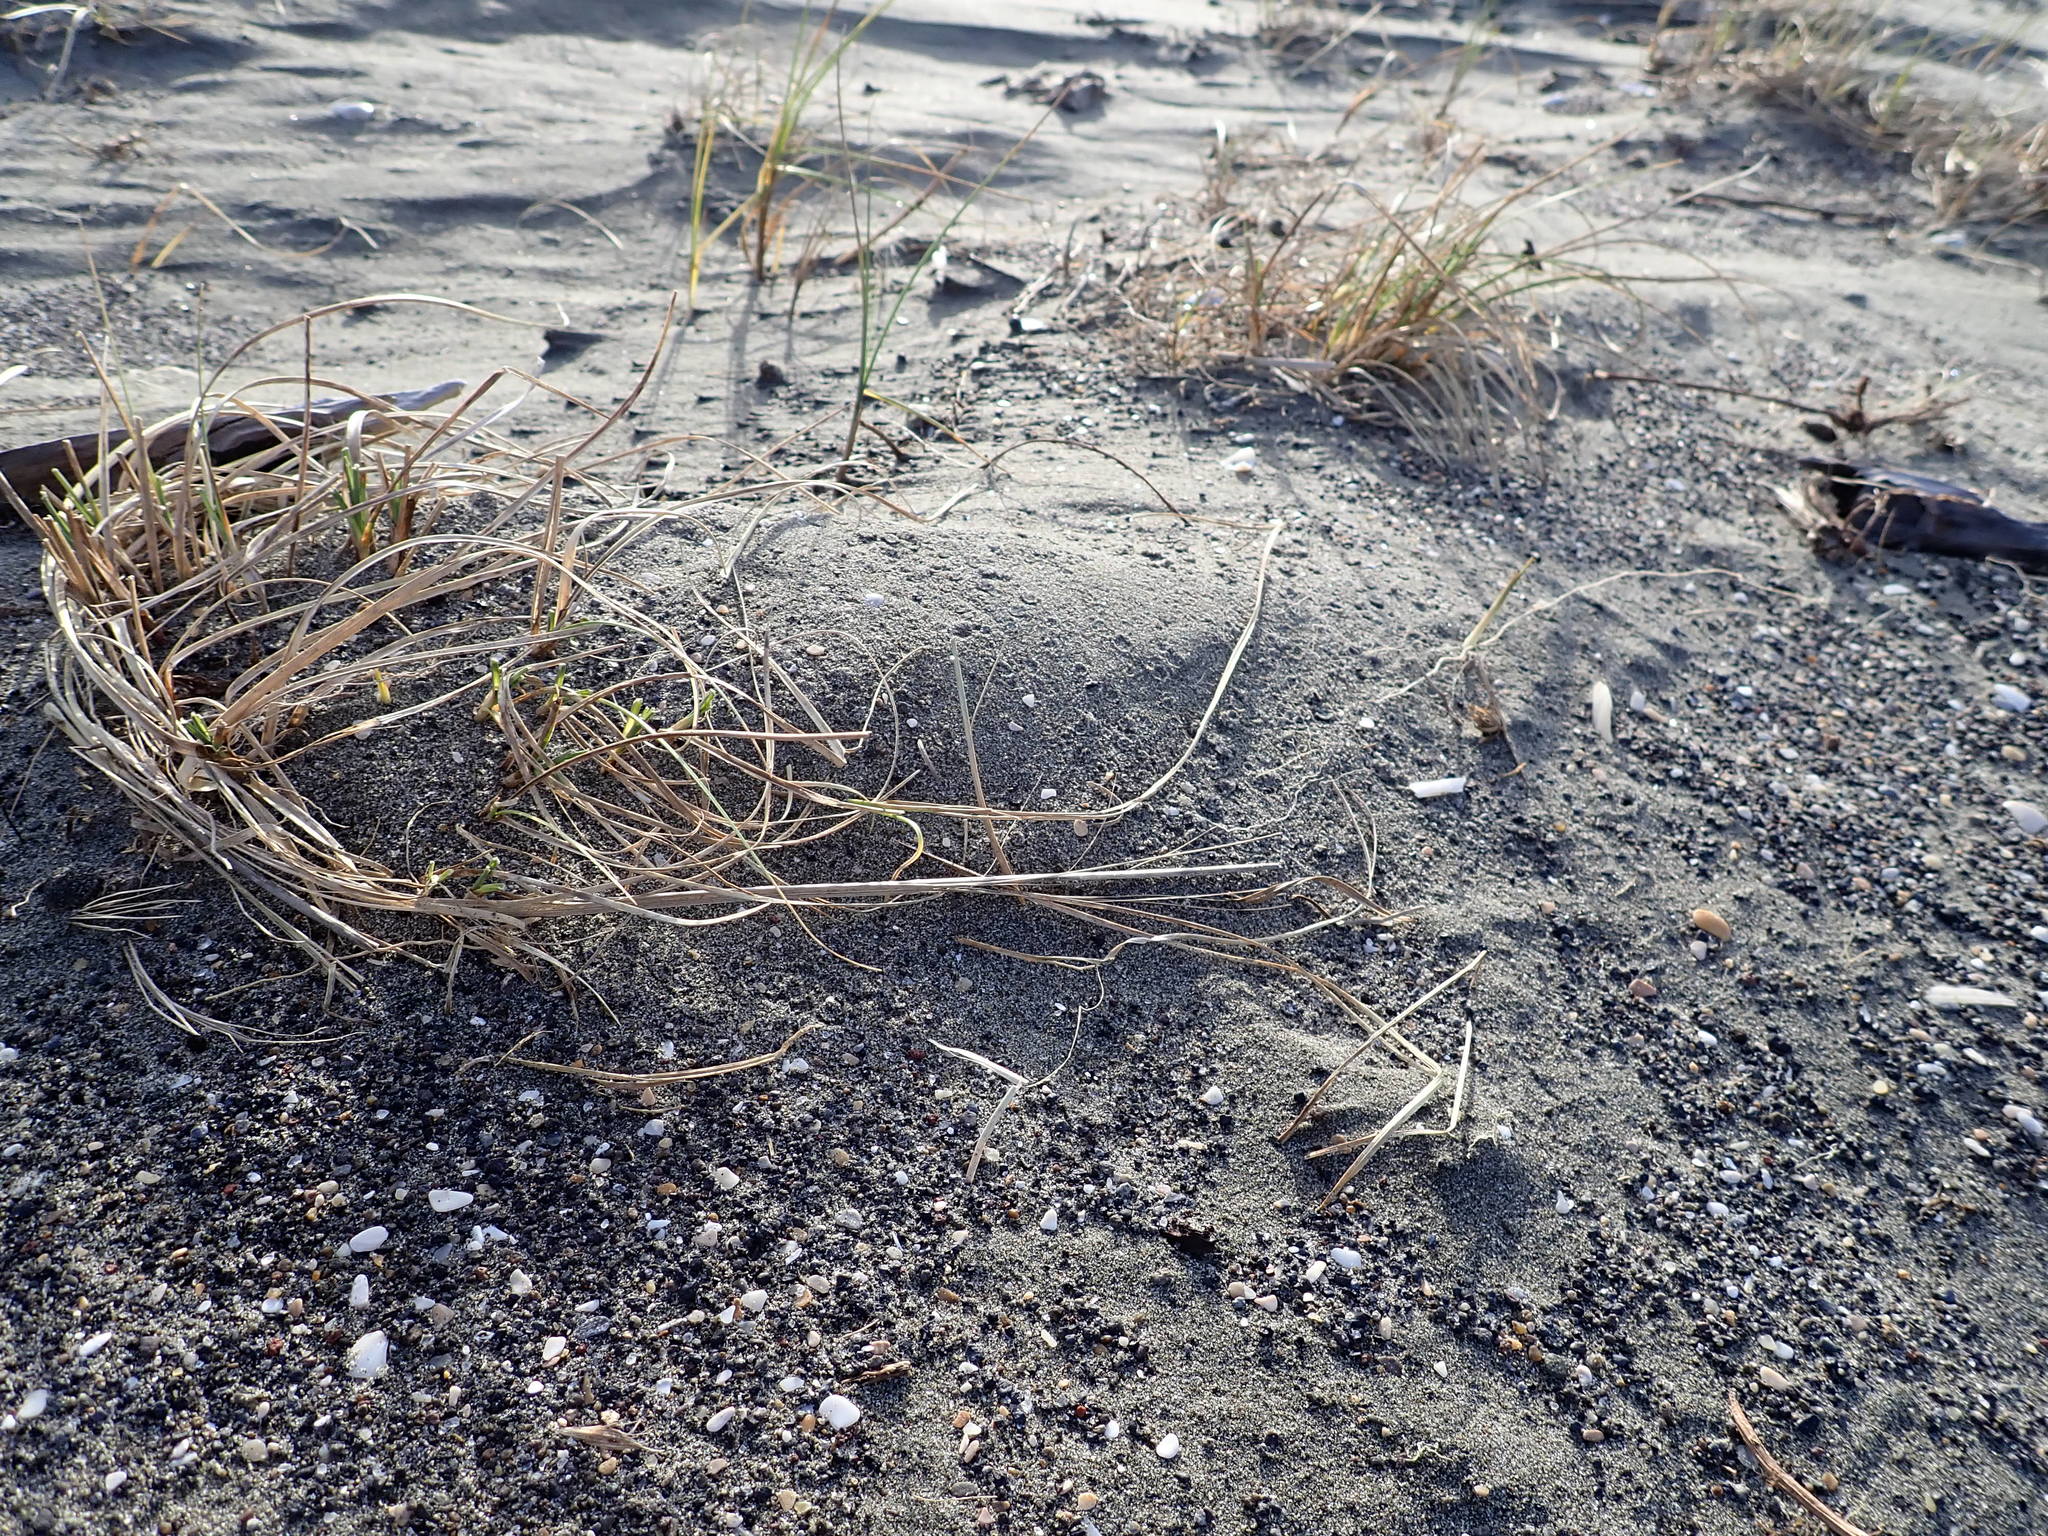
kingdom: Plantae
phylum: Tracheophyta
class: Liliopsida
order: Poales
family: Cyperaceae
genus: Carex
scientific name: Carex pumila
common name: Dwarf sedge
